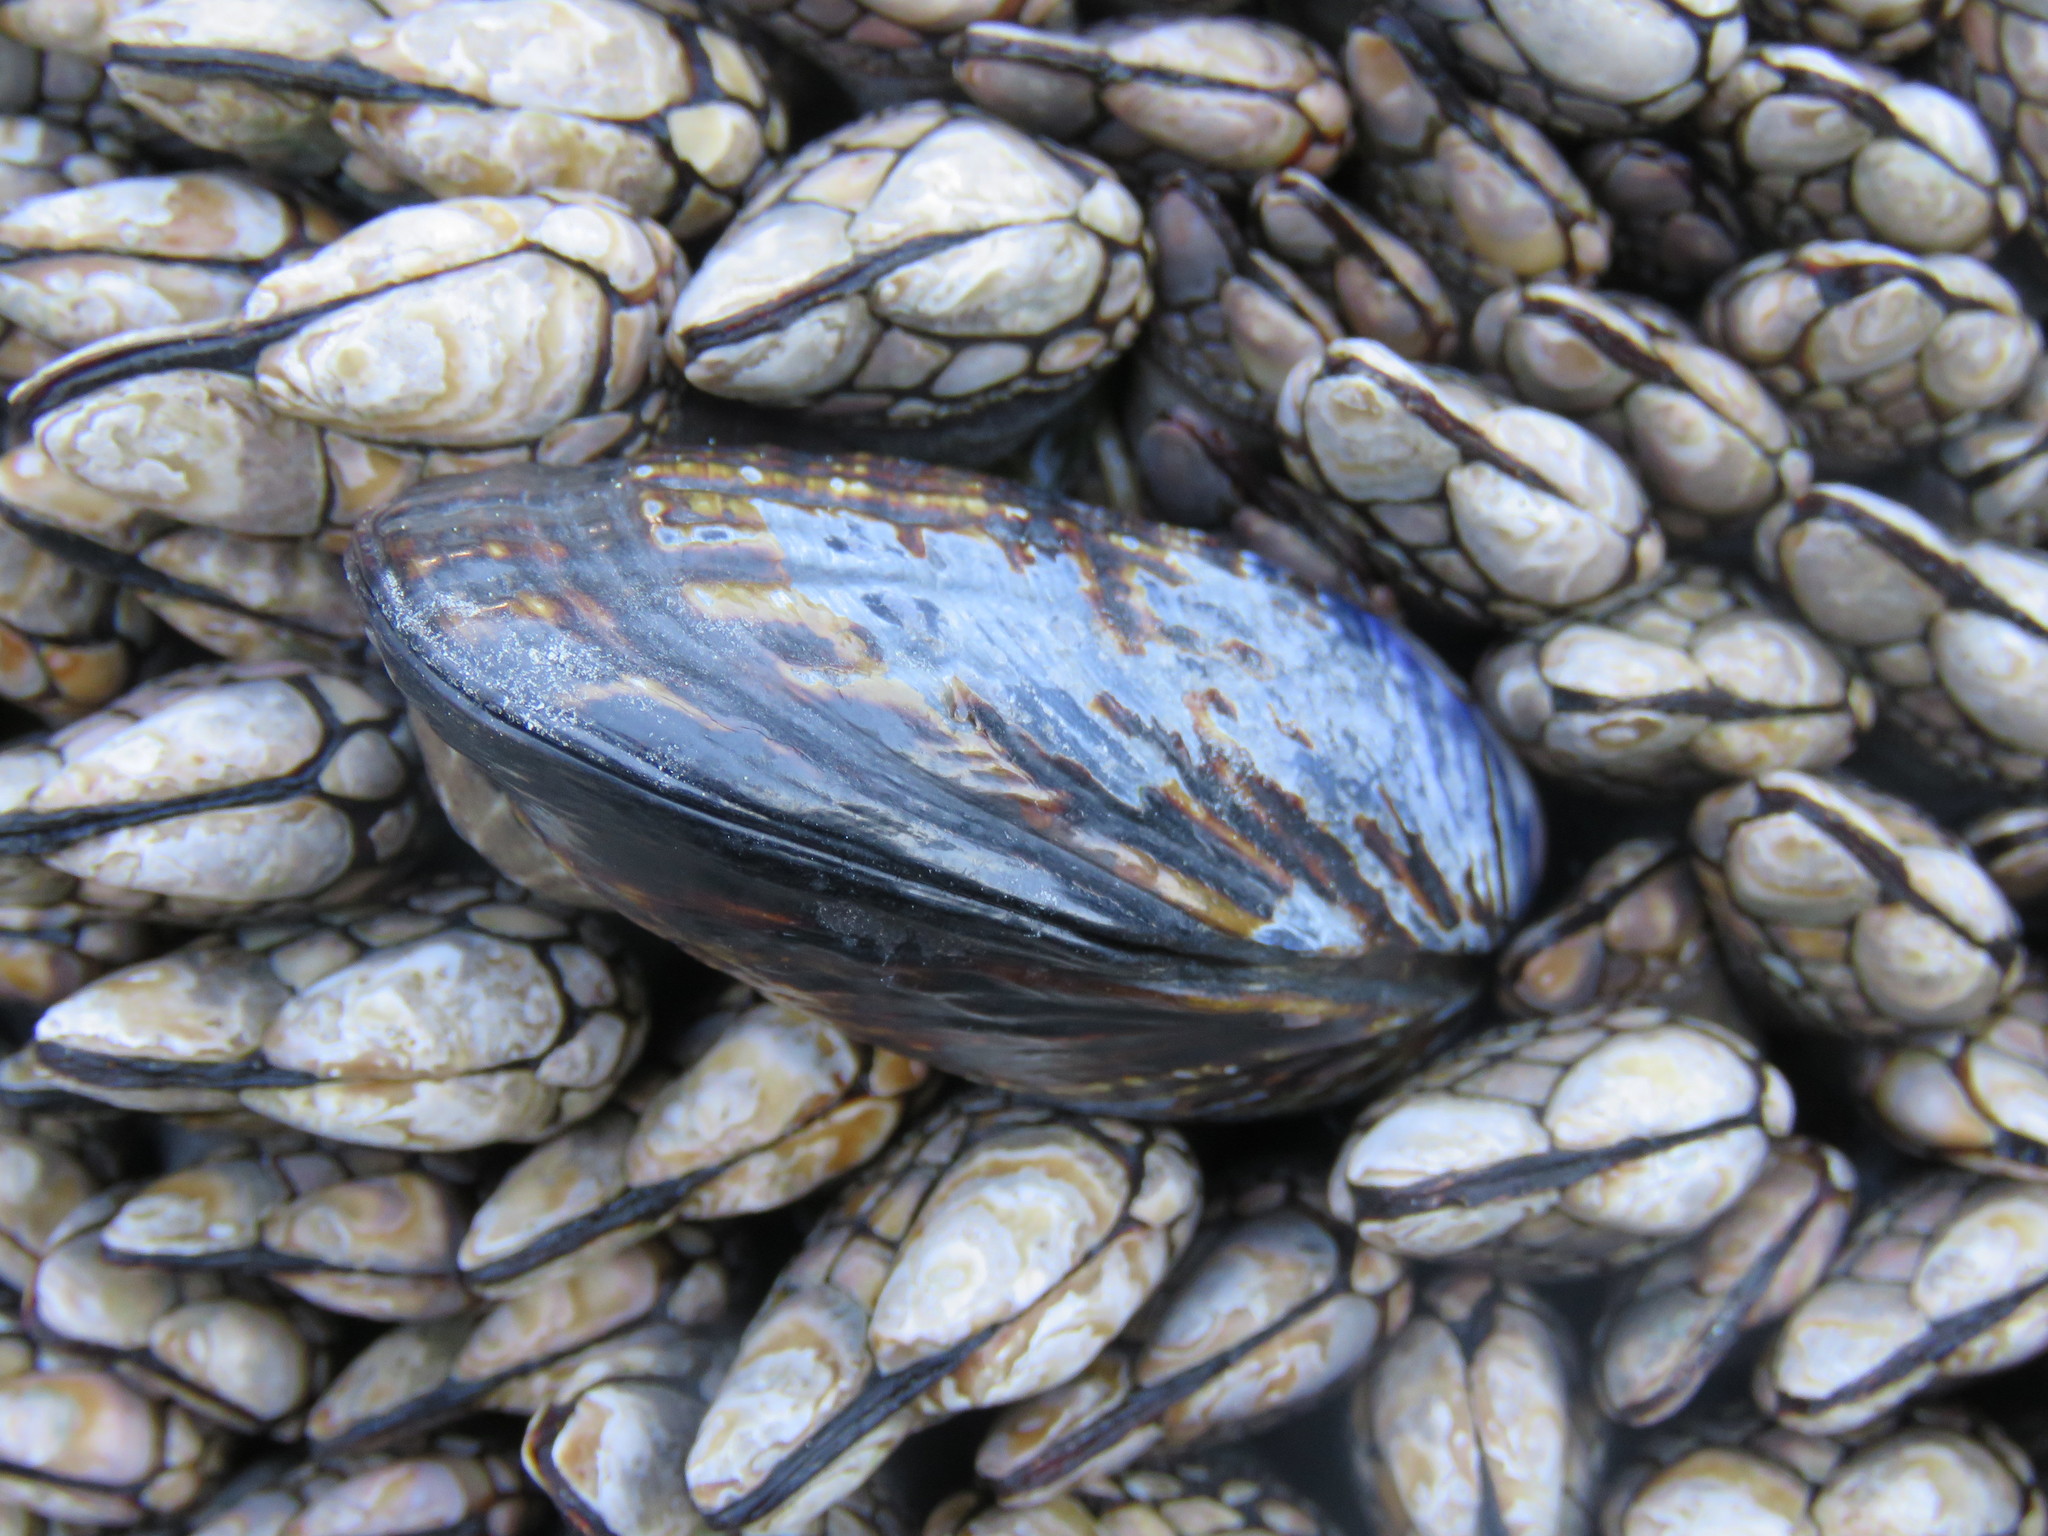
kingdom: Animalia
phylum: Arthropoda
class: Maxillopoda
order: Pedunculata
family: Pollicipedidae
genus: Pollicipes
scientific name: Pollicipes polymerus
